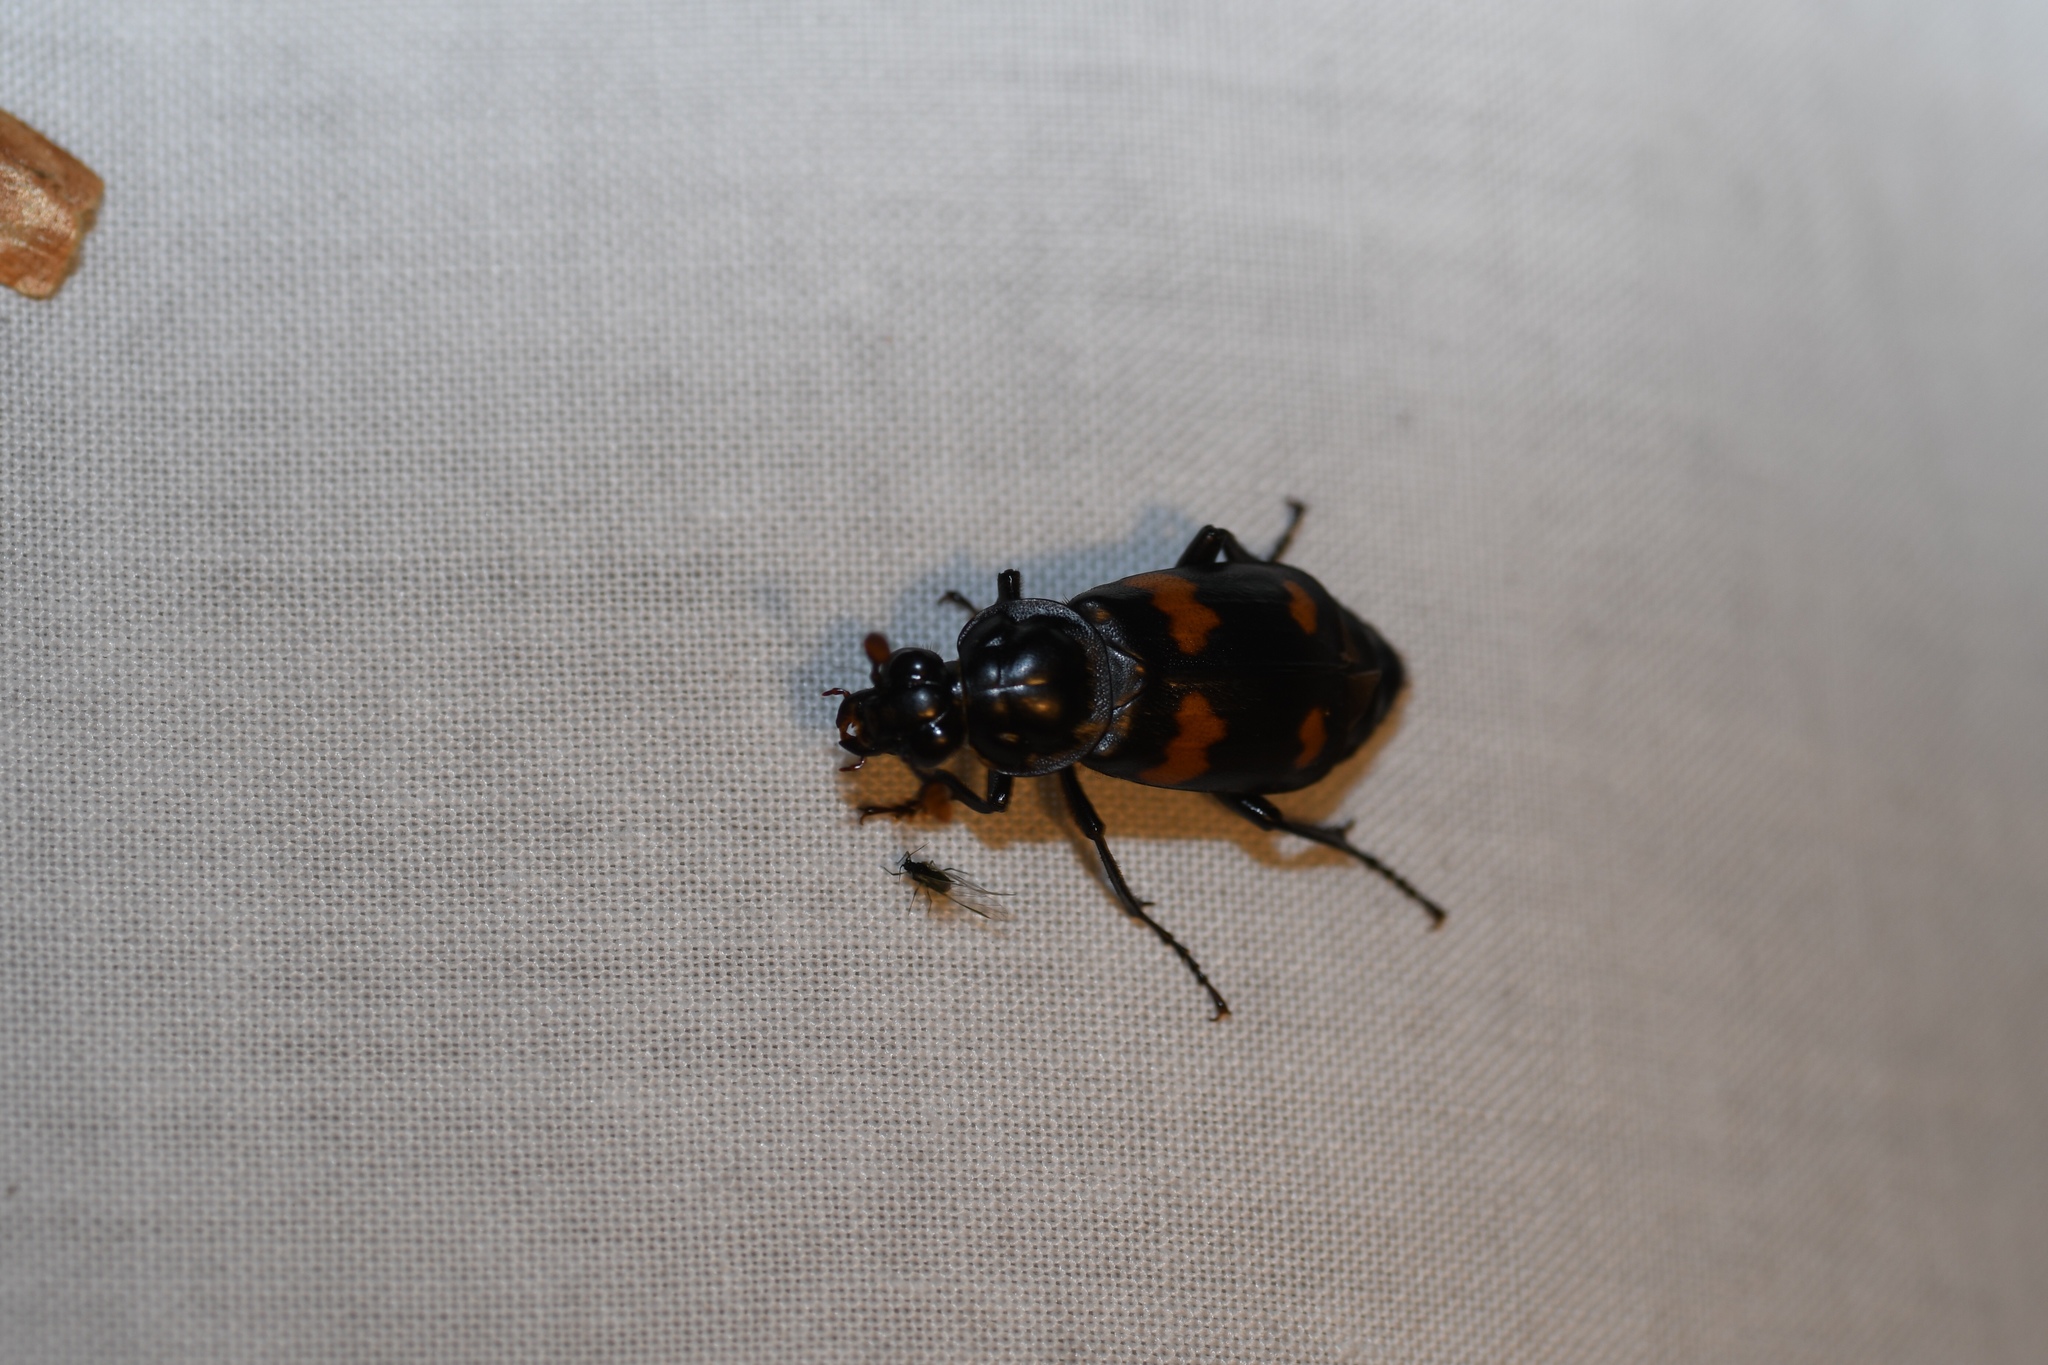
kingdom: Animalia
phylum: Arthropoda
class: Insecta
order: Coleoptera
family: Staphylinidae
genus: Nicrophorus
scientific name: Nicrophorus orbicollis
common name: Roundneck sexton beetle
